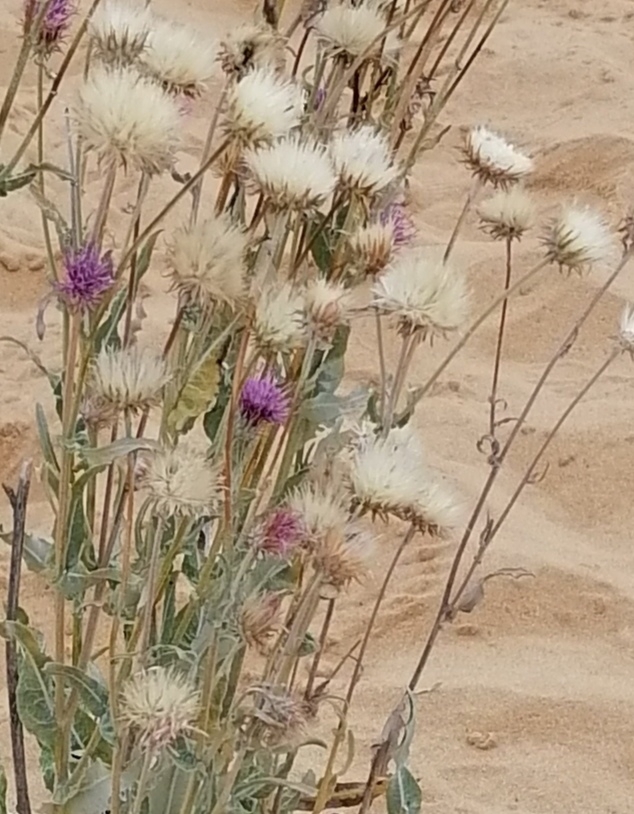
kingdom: Plantae
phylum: Tracheophyta
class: Magnoliopsida
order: Asterales
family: Asteraceae
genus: Jurinea
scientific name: Jurinea longifolia
